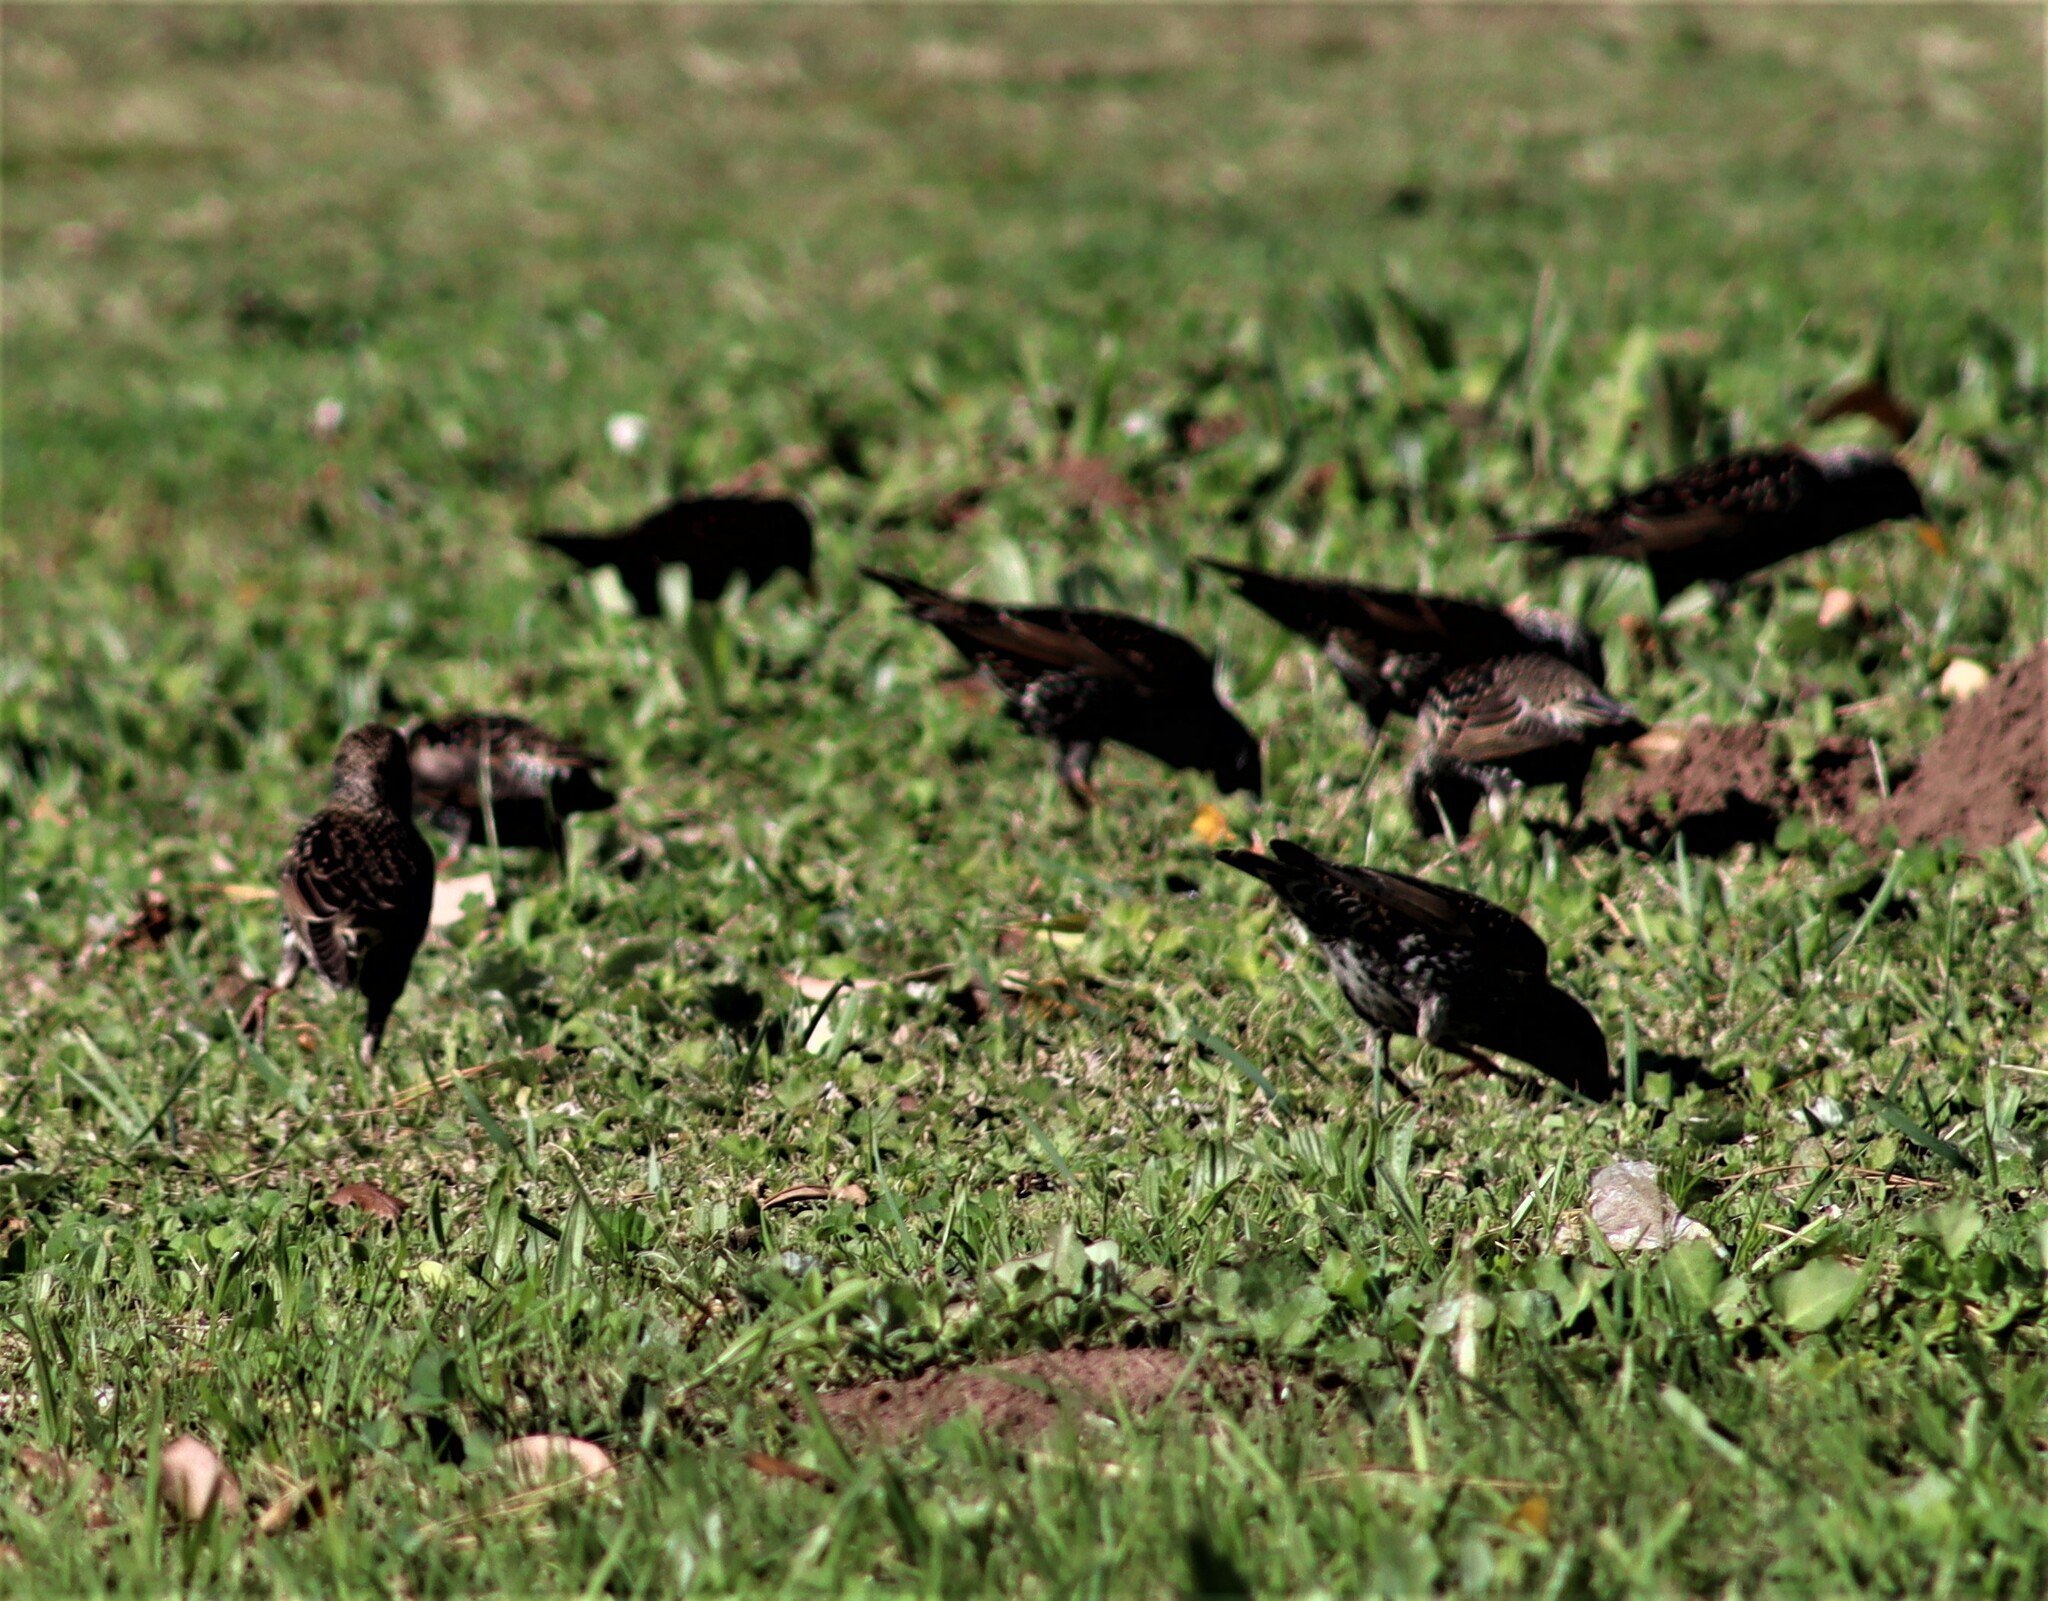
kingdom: Animalia
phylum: Chordata
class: Aves
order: Passeriformes
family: Sturnidae
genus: Sturnus
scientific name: Sturnus vulgaris
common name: Common starling
